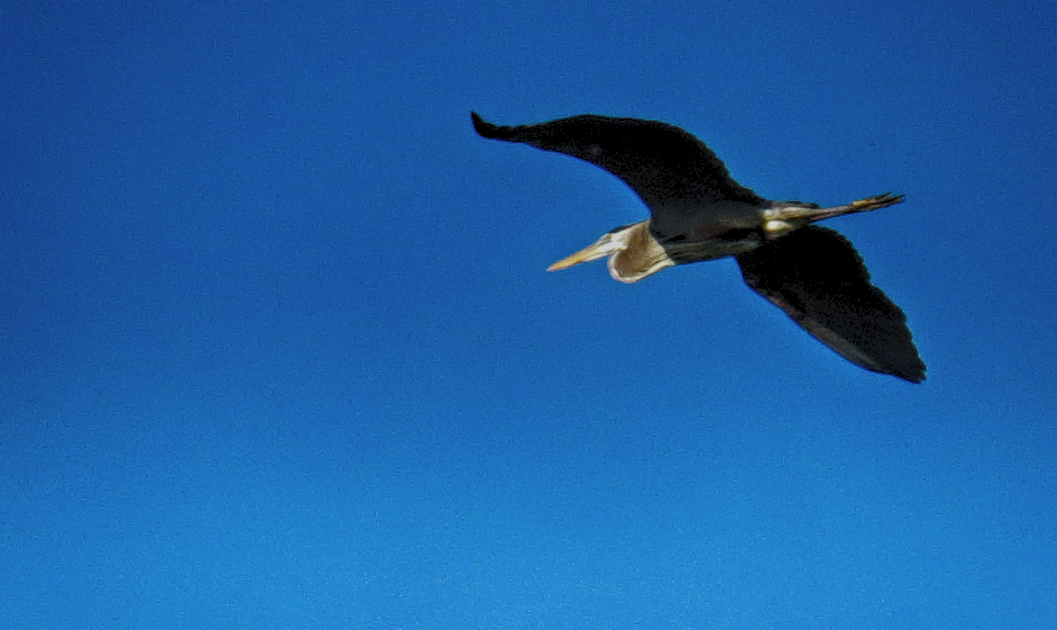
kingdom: Animalia
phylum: Chordata
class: Aves
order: Pelecaniformes
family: Ardeidae
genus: Ardea
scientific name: Ardea herodias
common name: Great blue heron
